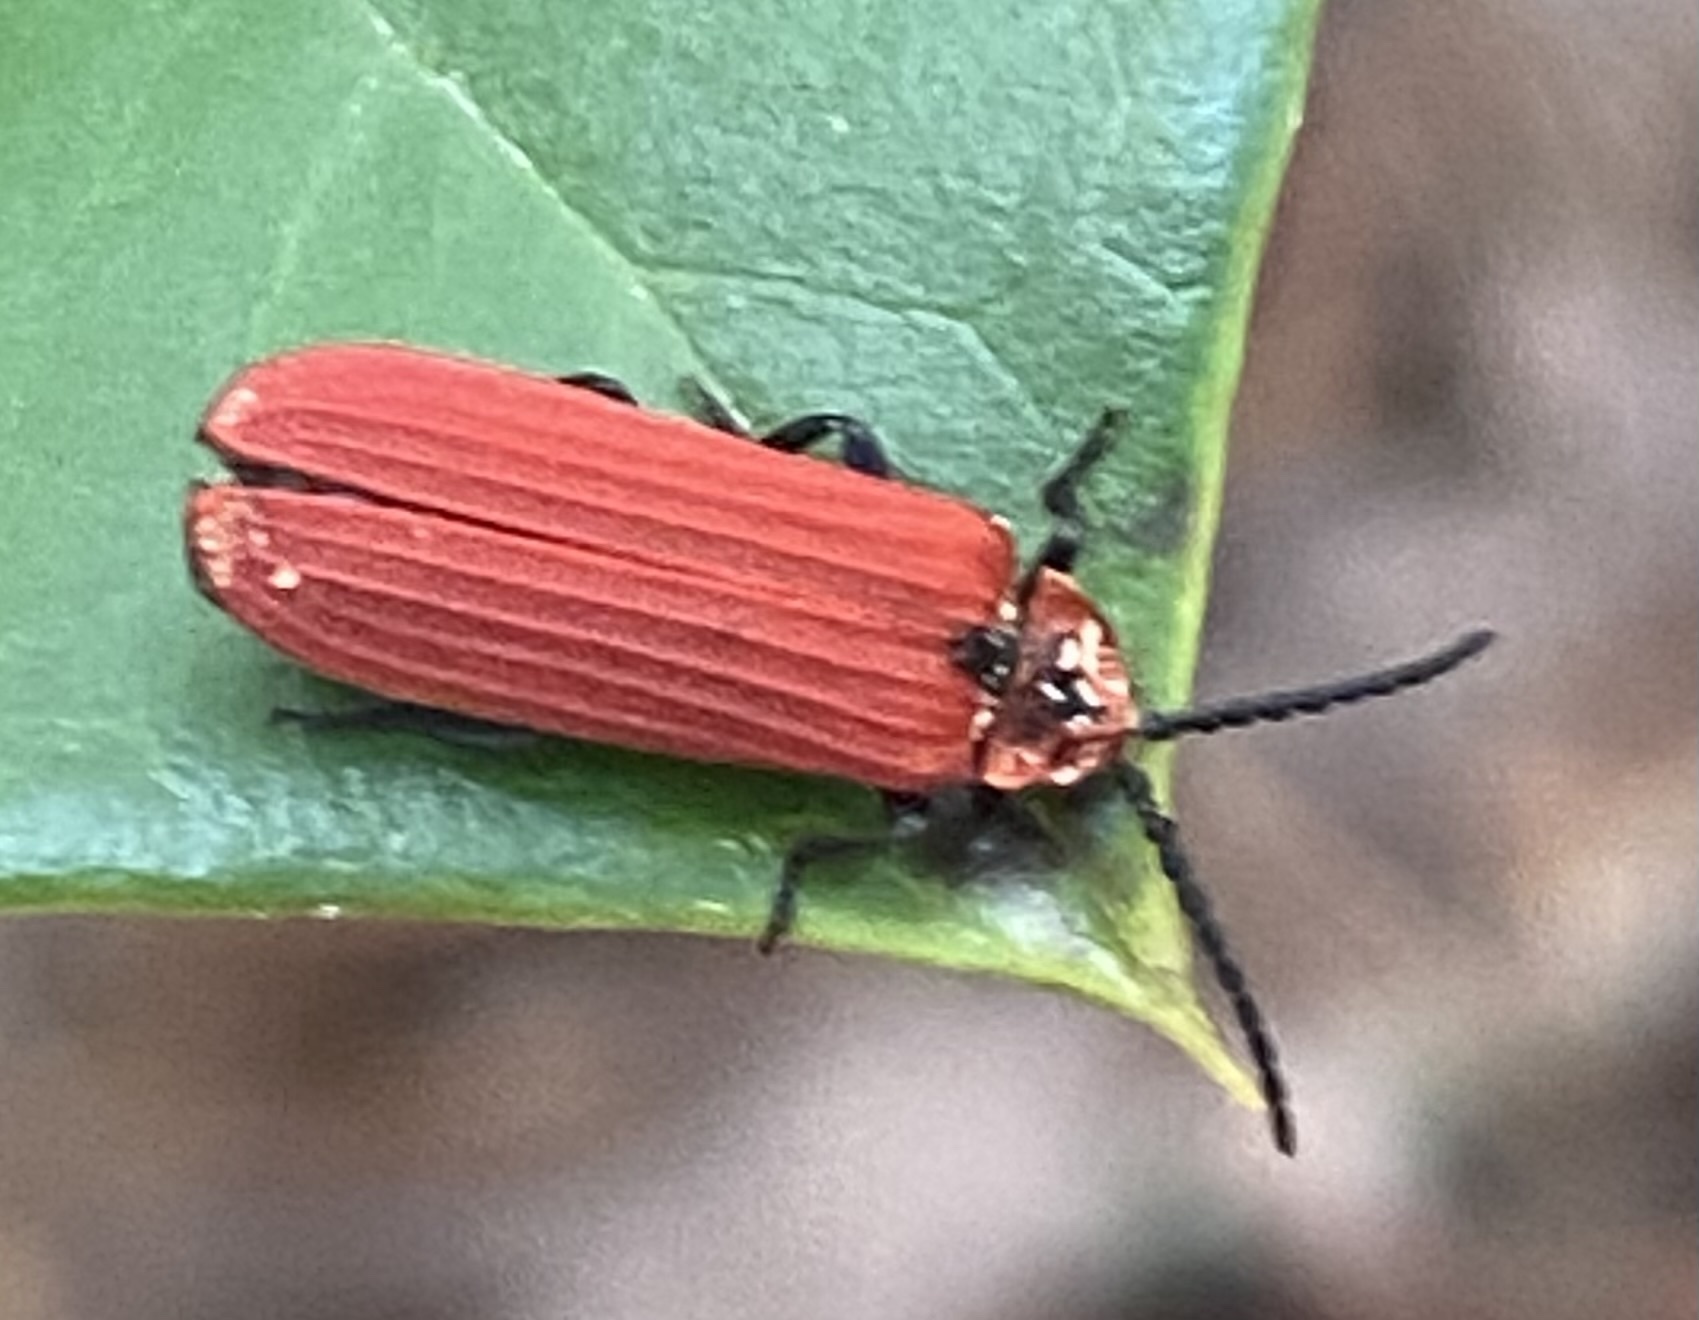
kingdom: Animalia
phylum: Arthropoda
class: Insecta
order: Coleoptera
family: Lycidae
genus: Dictyoptera
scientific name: Dictyoptera aurora
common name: Golden net-winged beetle
